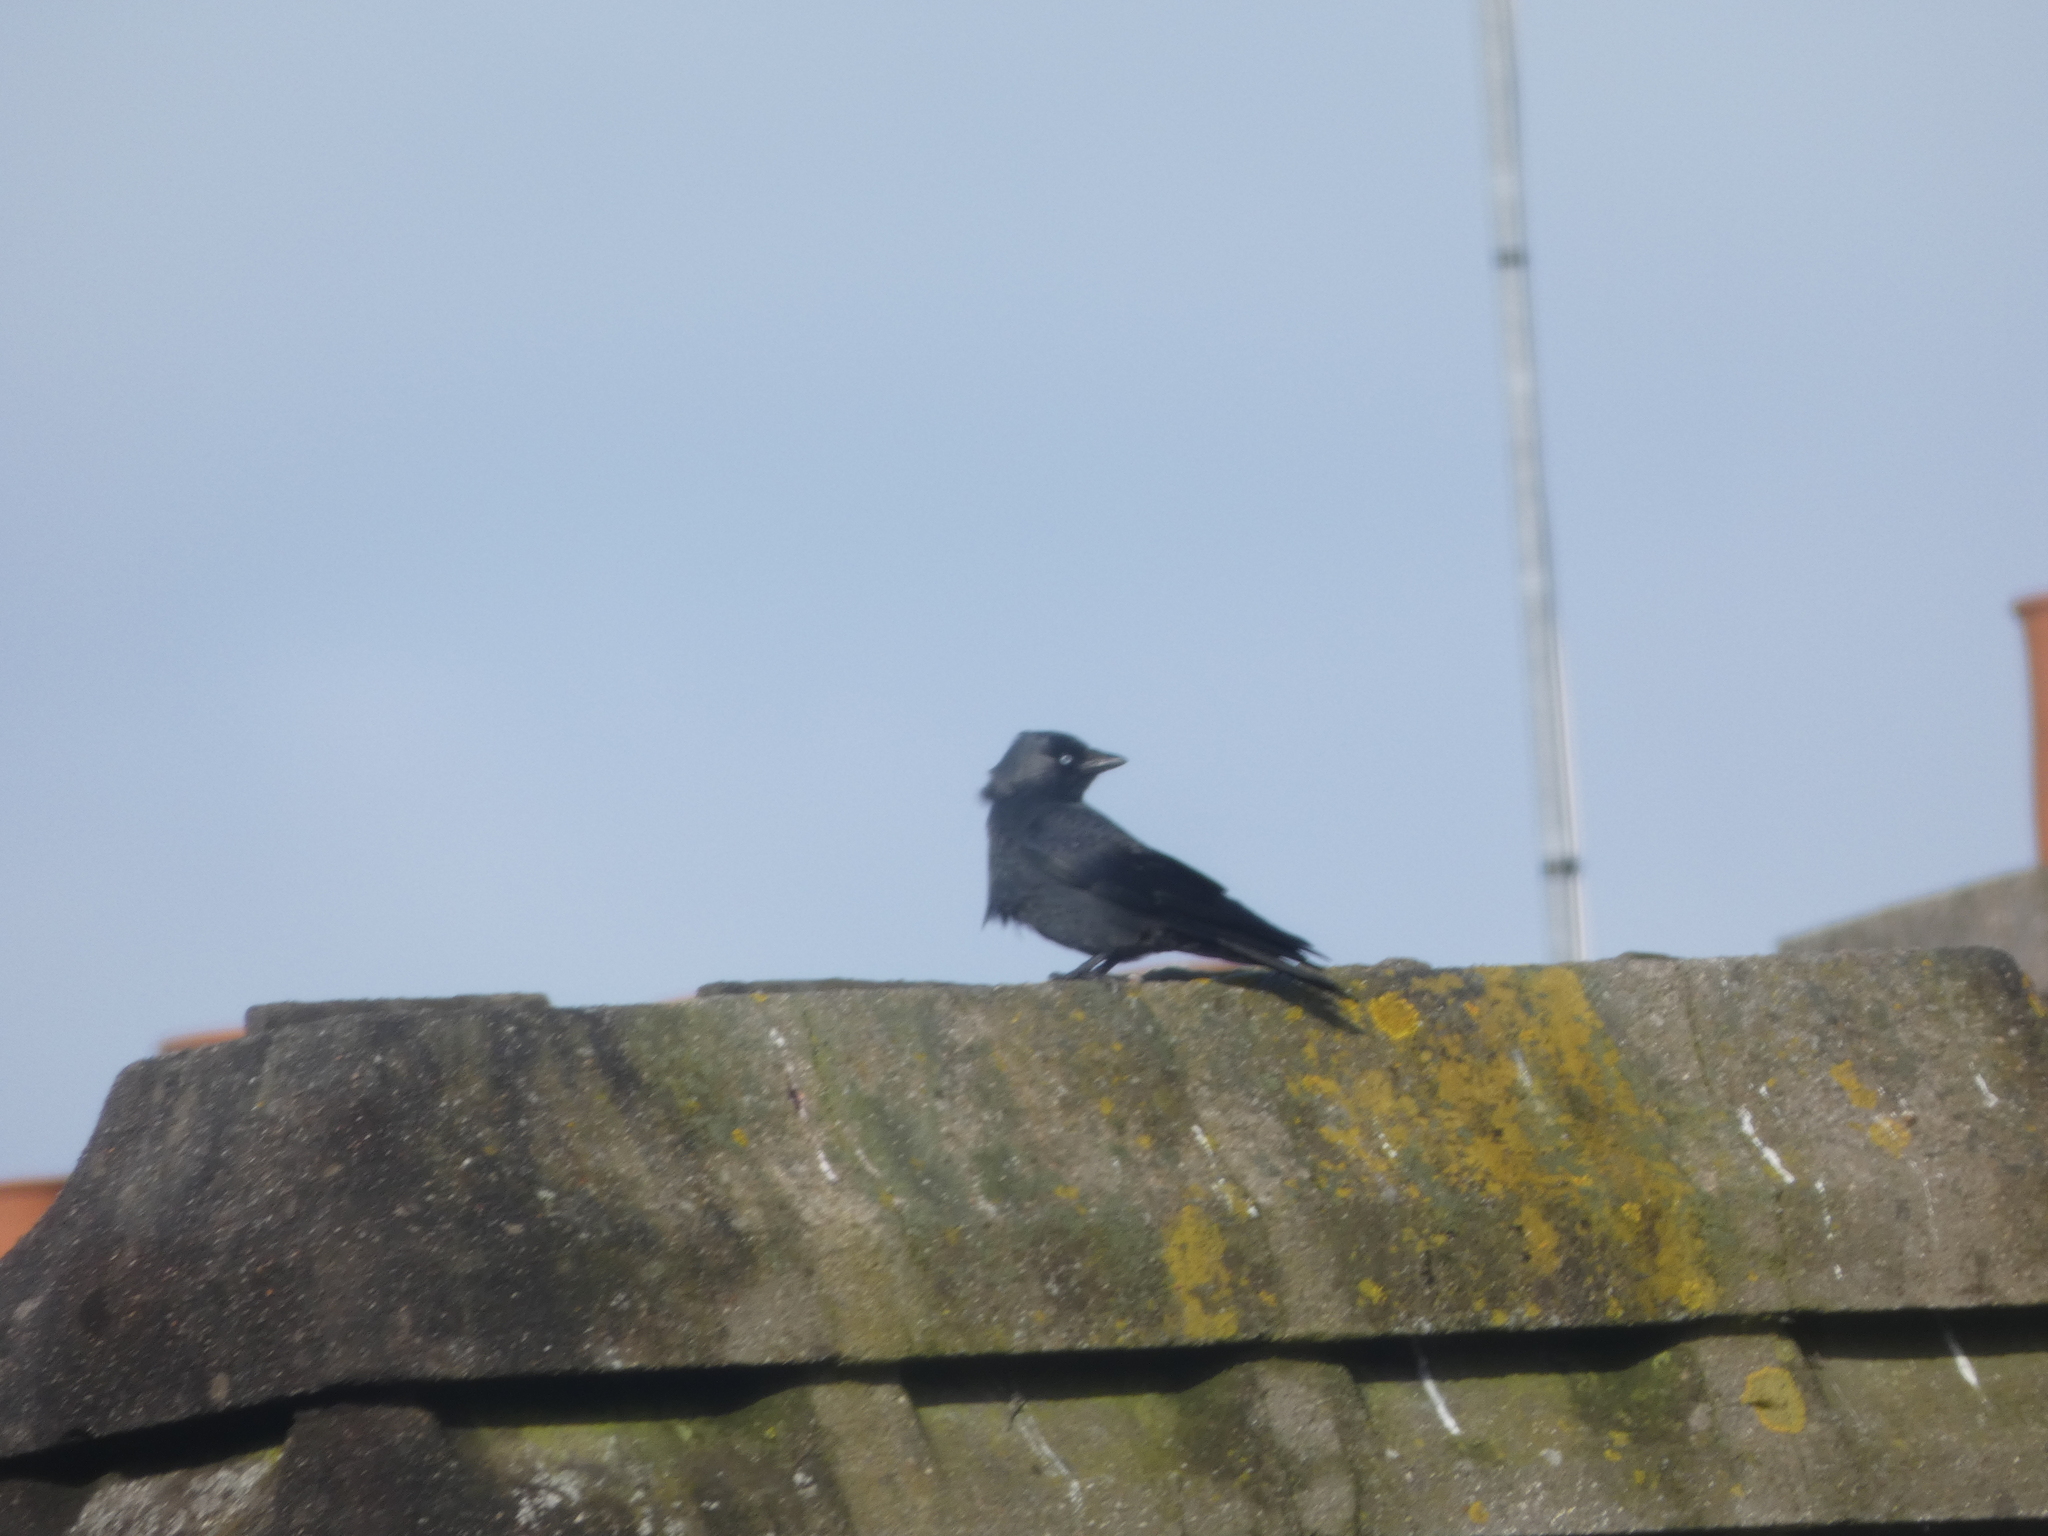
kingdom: Animalia
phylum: Chordata
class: Aves
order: Passeriformes
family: Corvidae
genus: Coloeus
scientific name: Coloeus monedula
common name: Western jackdaw
